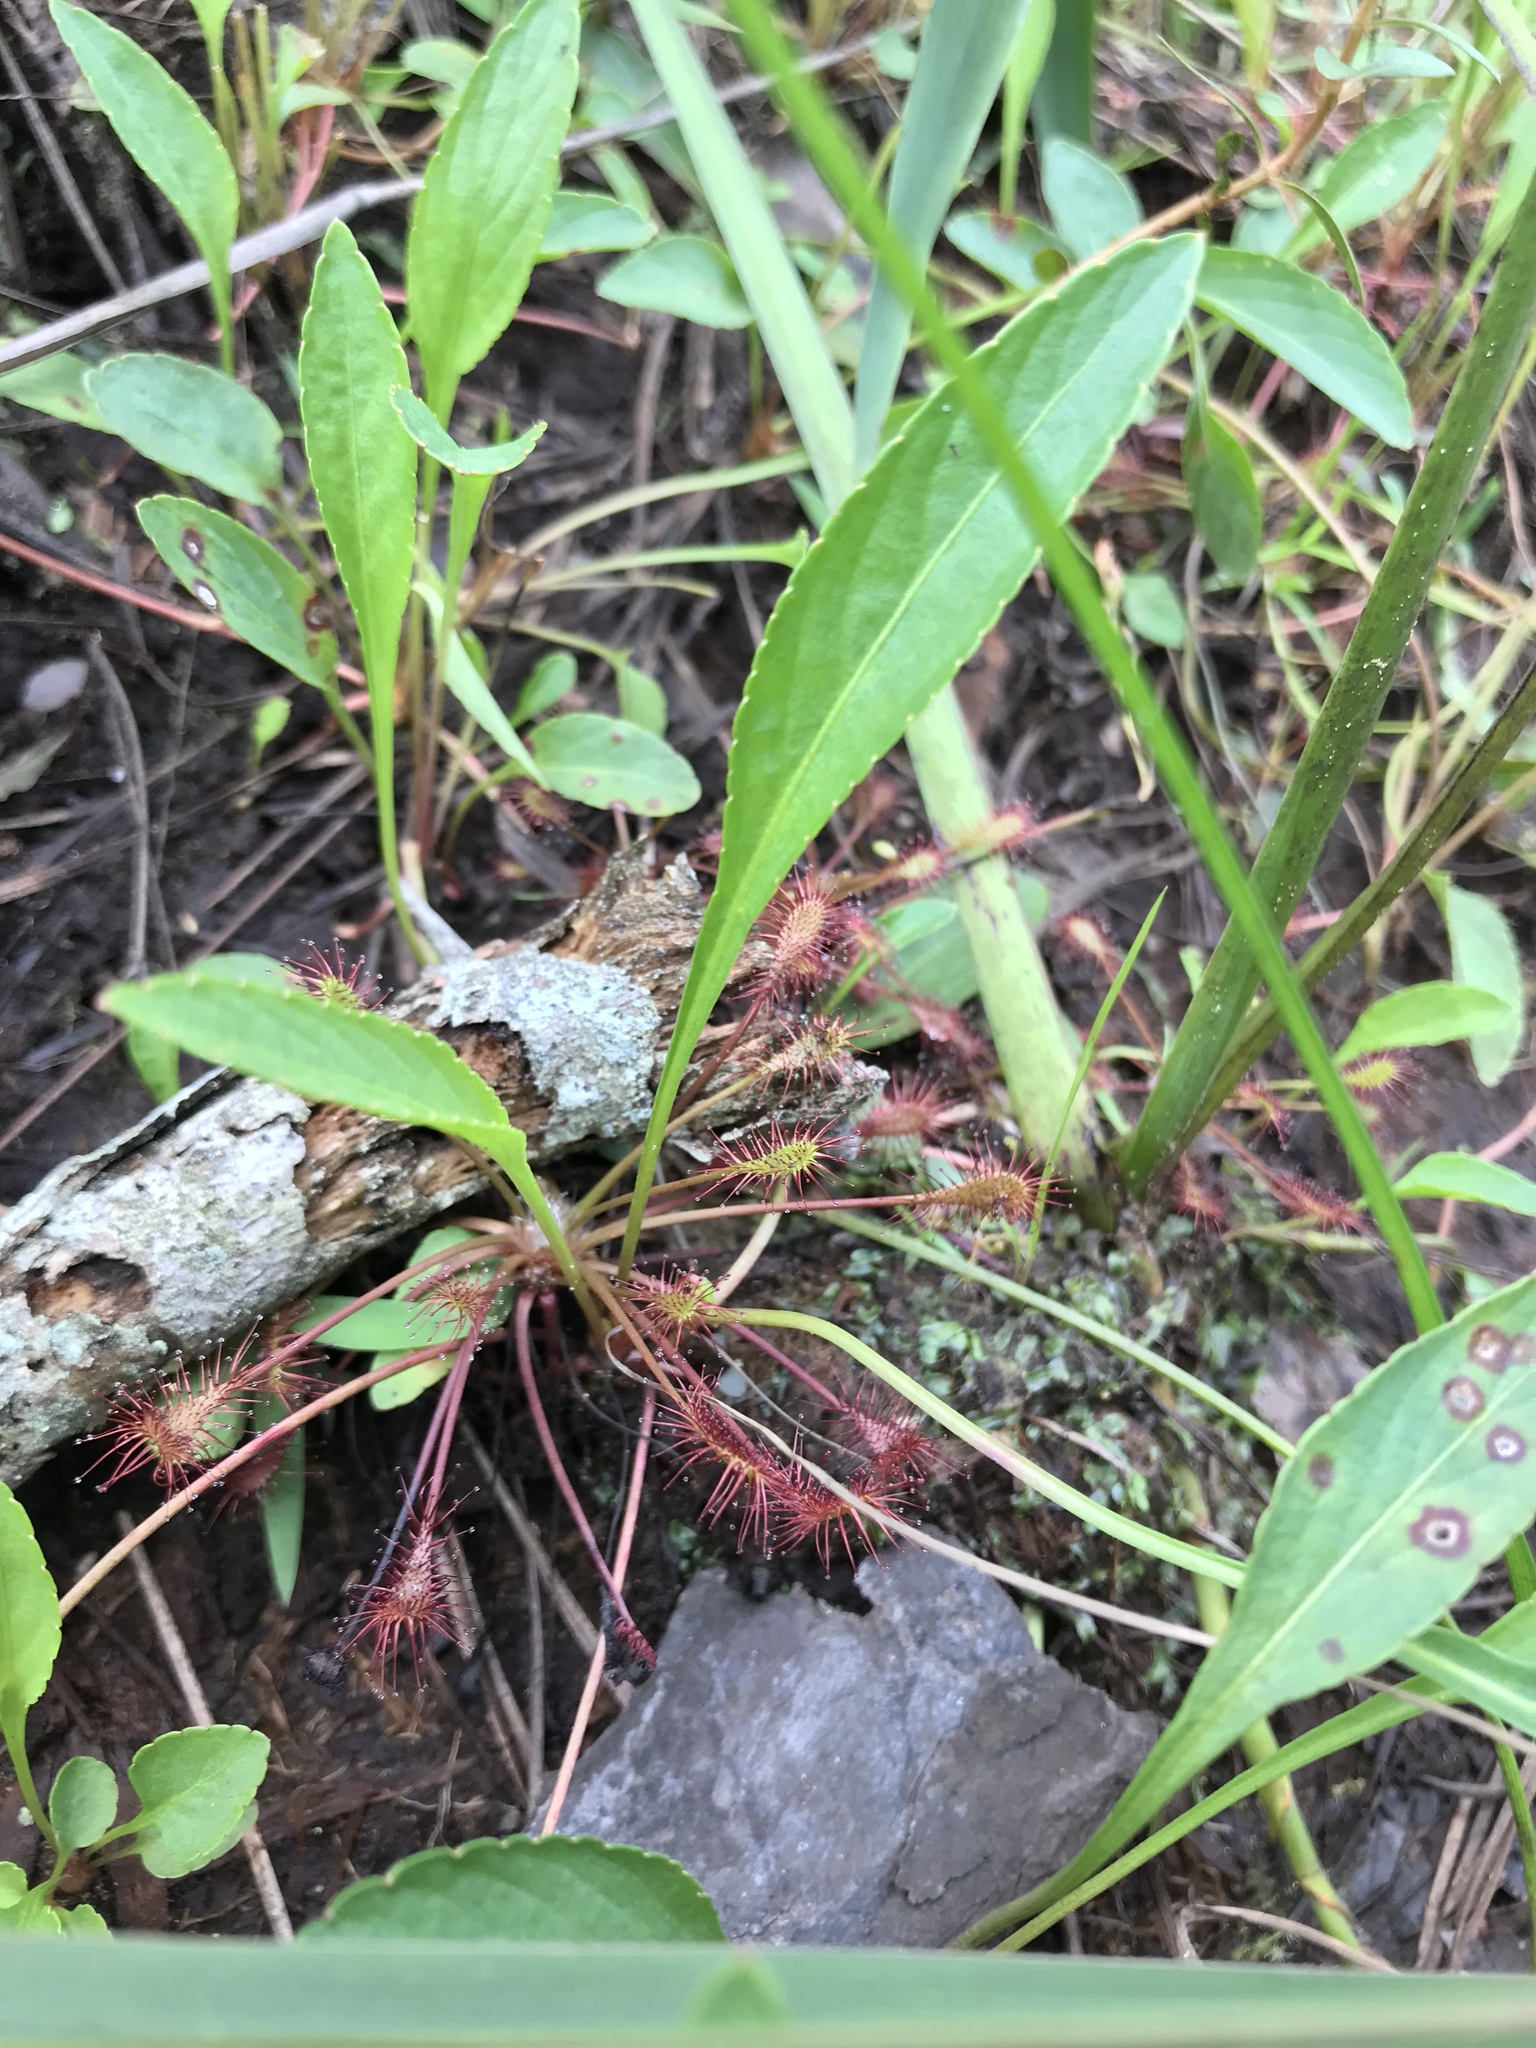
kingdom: Plantae
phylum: Tracheophyta
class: Magnoliopsida
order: Malpighiales
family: Violaceae
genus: Viola
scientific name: Viola lanceolata
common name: Bog white violet
